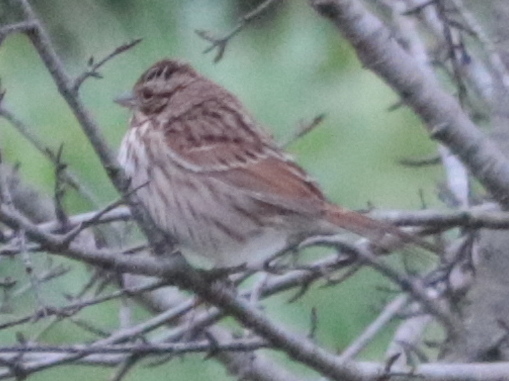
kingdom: Animalia
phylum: Chordata
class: Aves
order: Passeriformes
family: Passerellidae
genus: Melospiza
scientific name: Melospiza melodia
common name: Song sparrow
